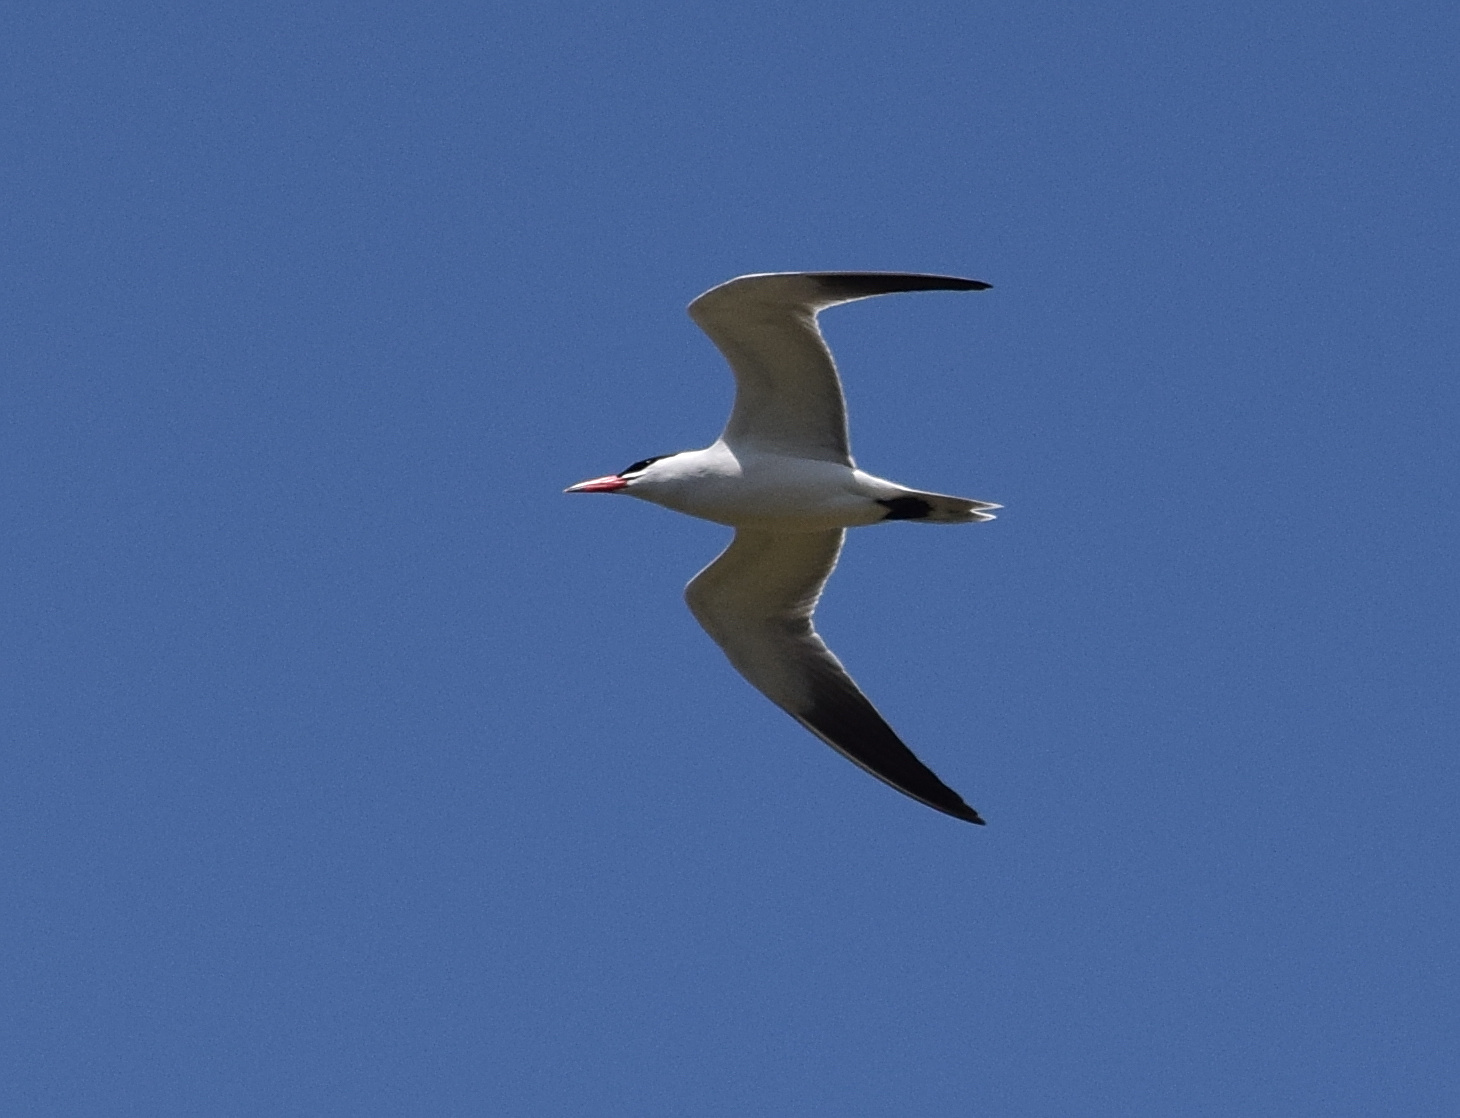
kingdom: Animalia
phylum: Chordata
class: Aves
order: Charadriiformes
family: Laridae
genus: Hydroprogne
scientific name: Hydroprogne caspia
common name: Caspian tern
